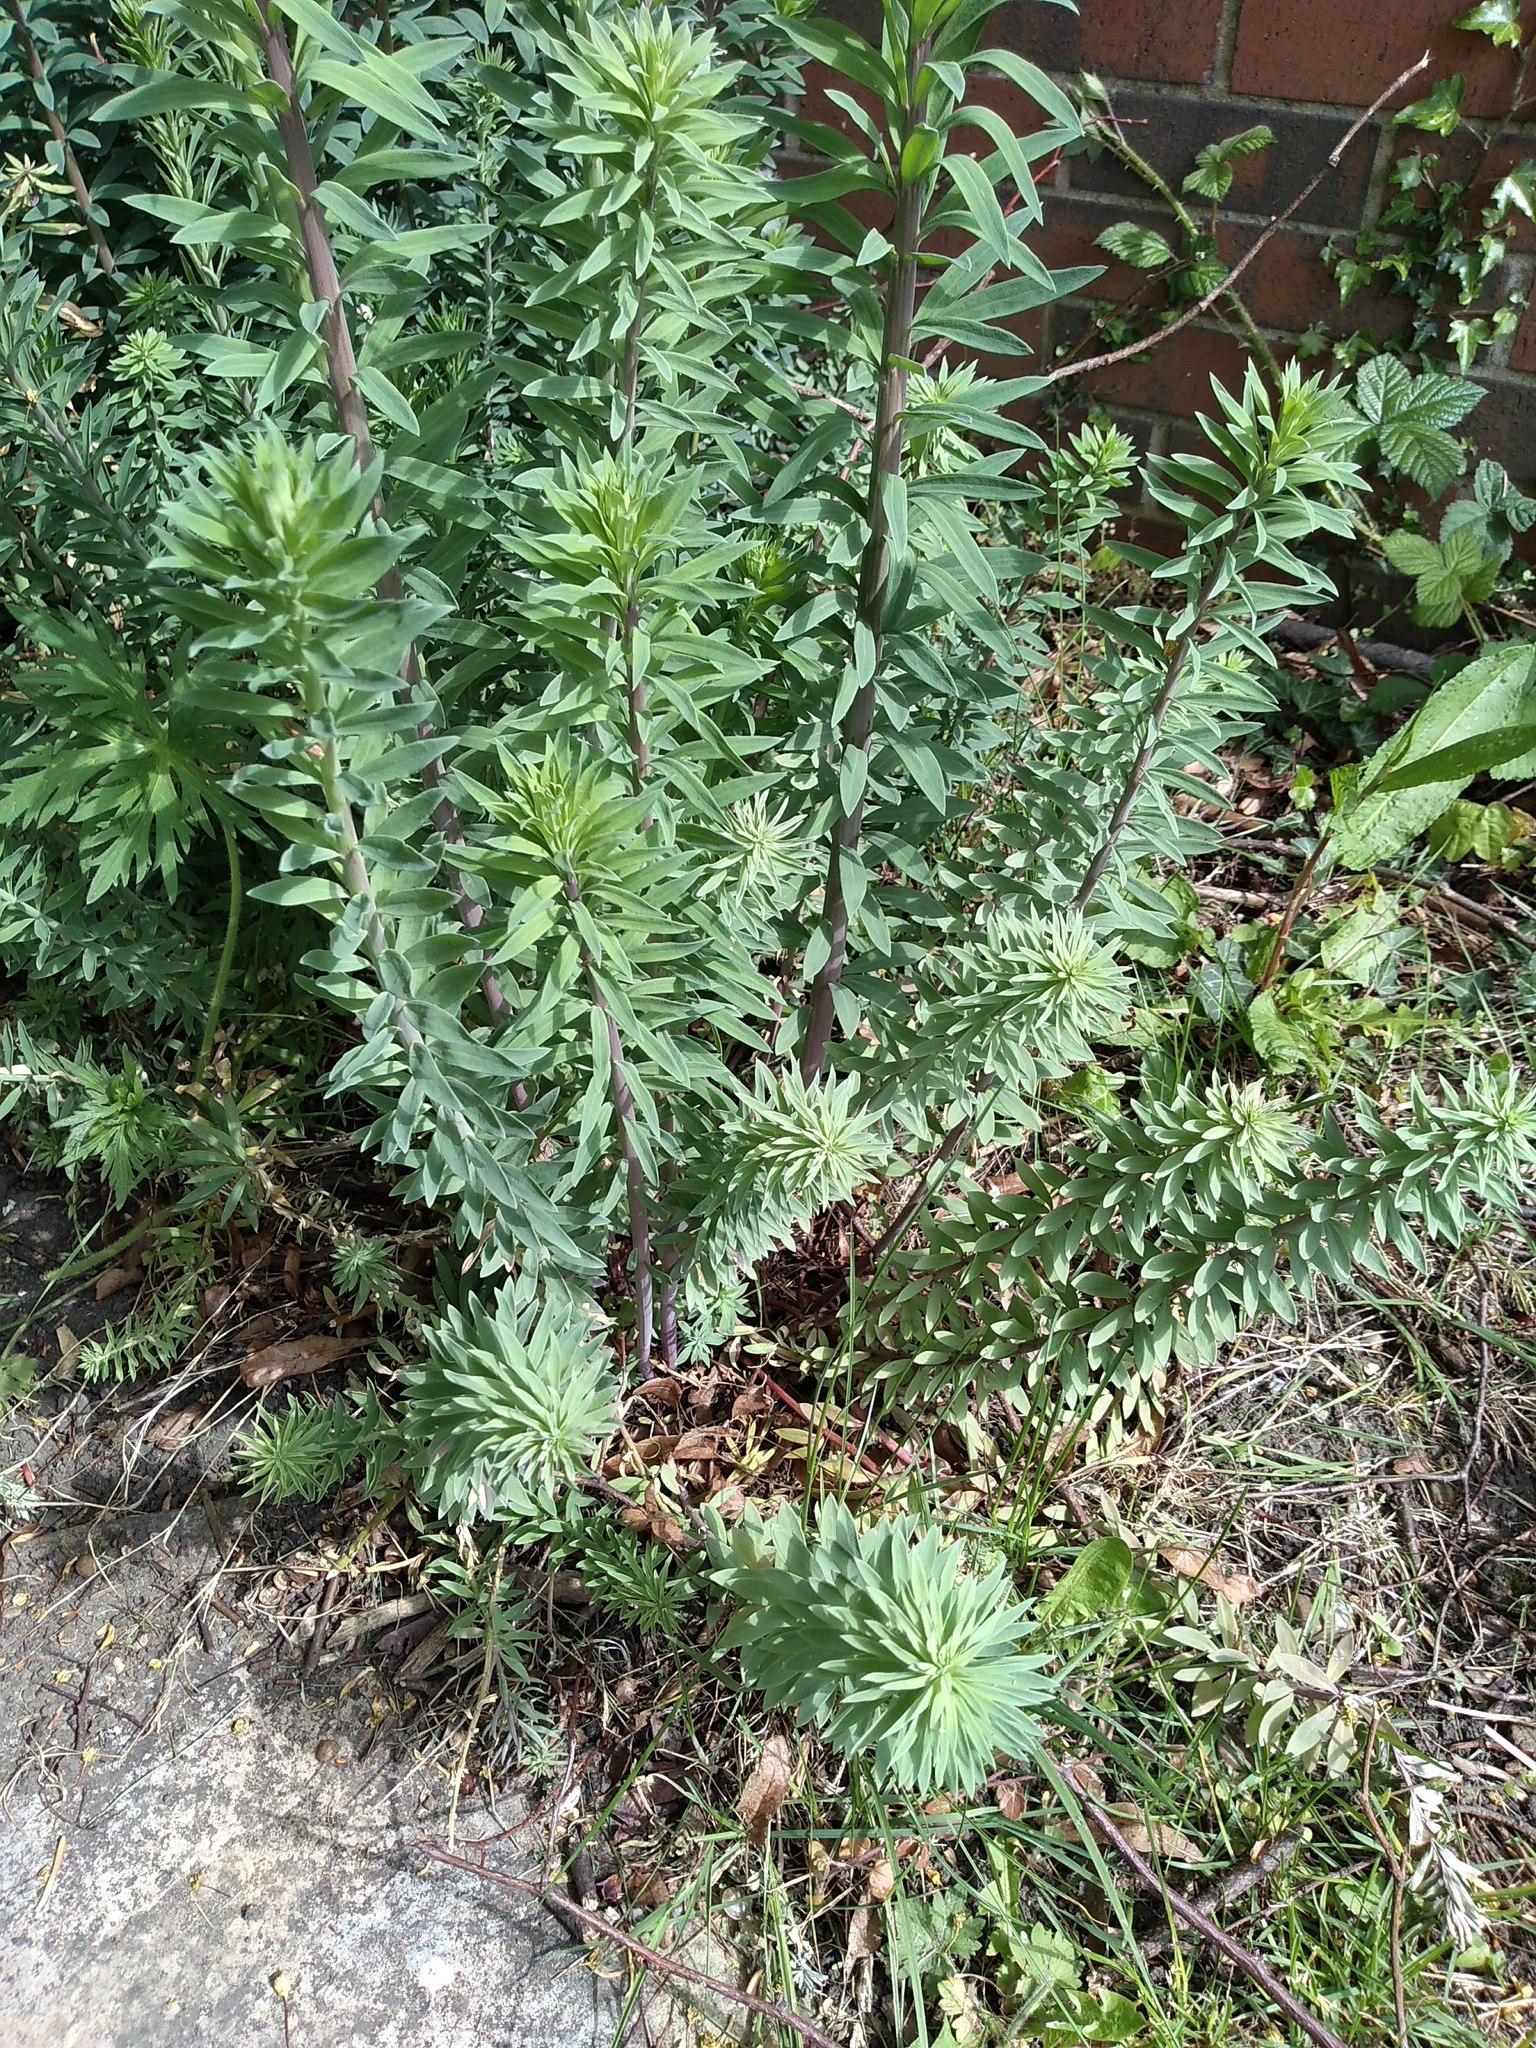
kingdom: Plantae
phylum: Tracheophyta
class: Magnoliopsida
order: Lamiales
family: Plantaginaceae
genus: Linaria
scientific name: Linaria purpurea
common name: Purple toadflax
